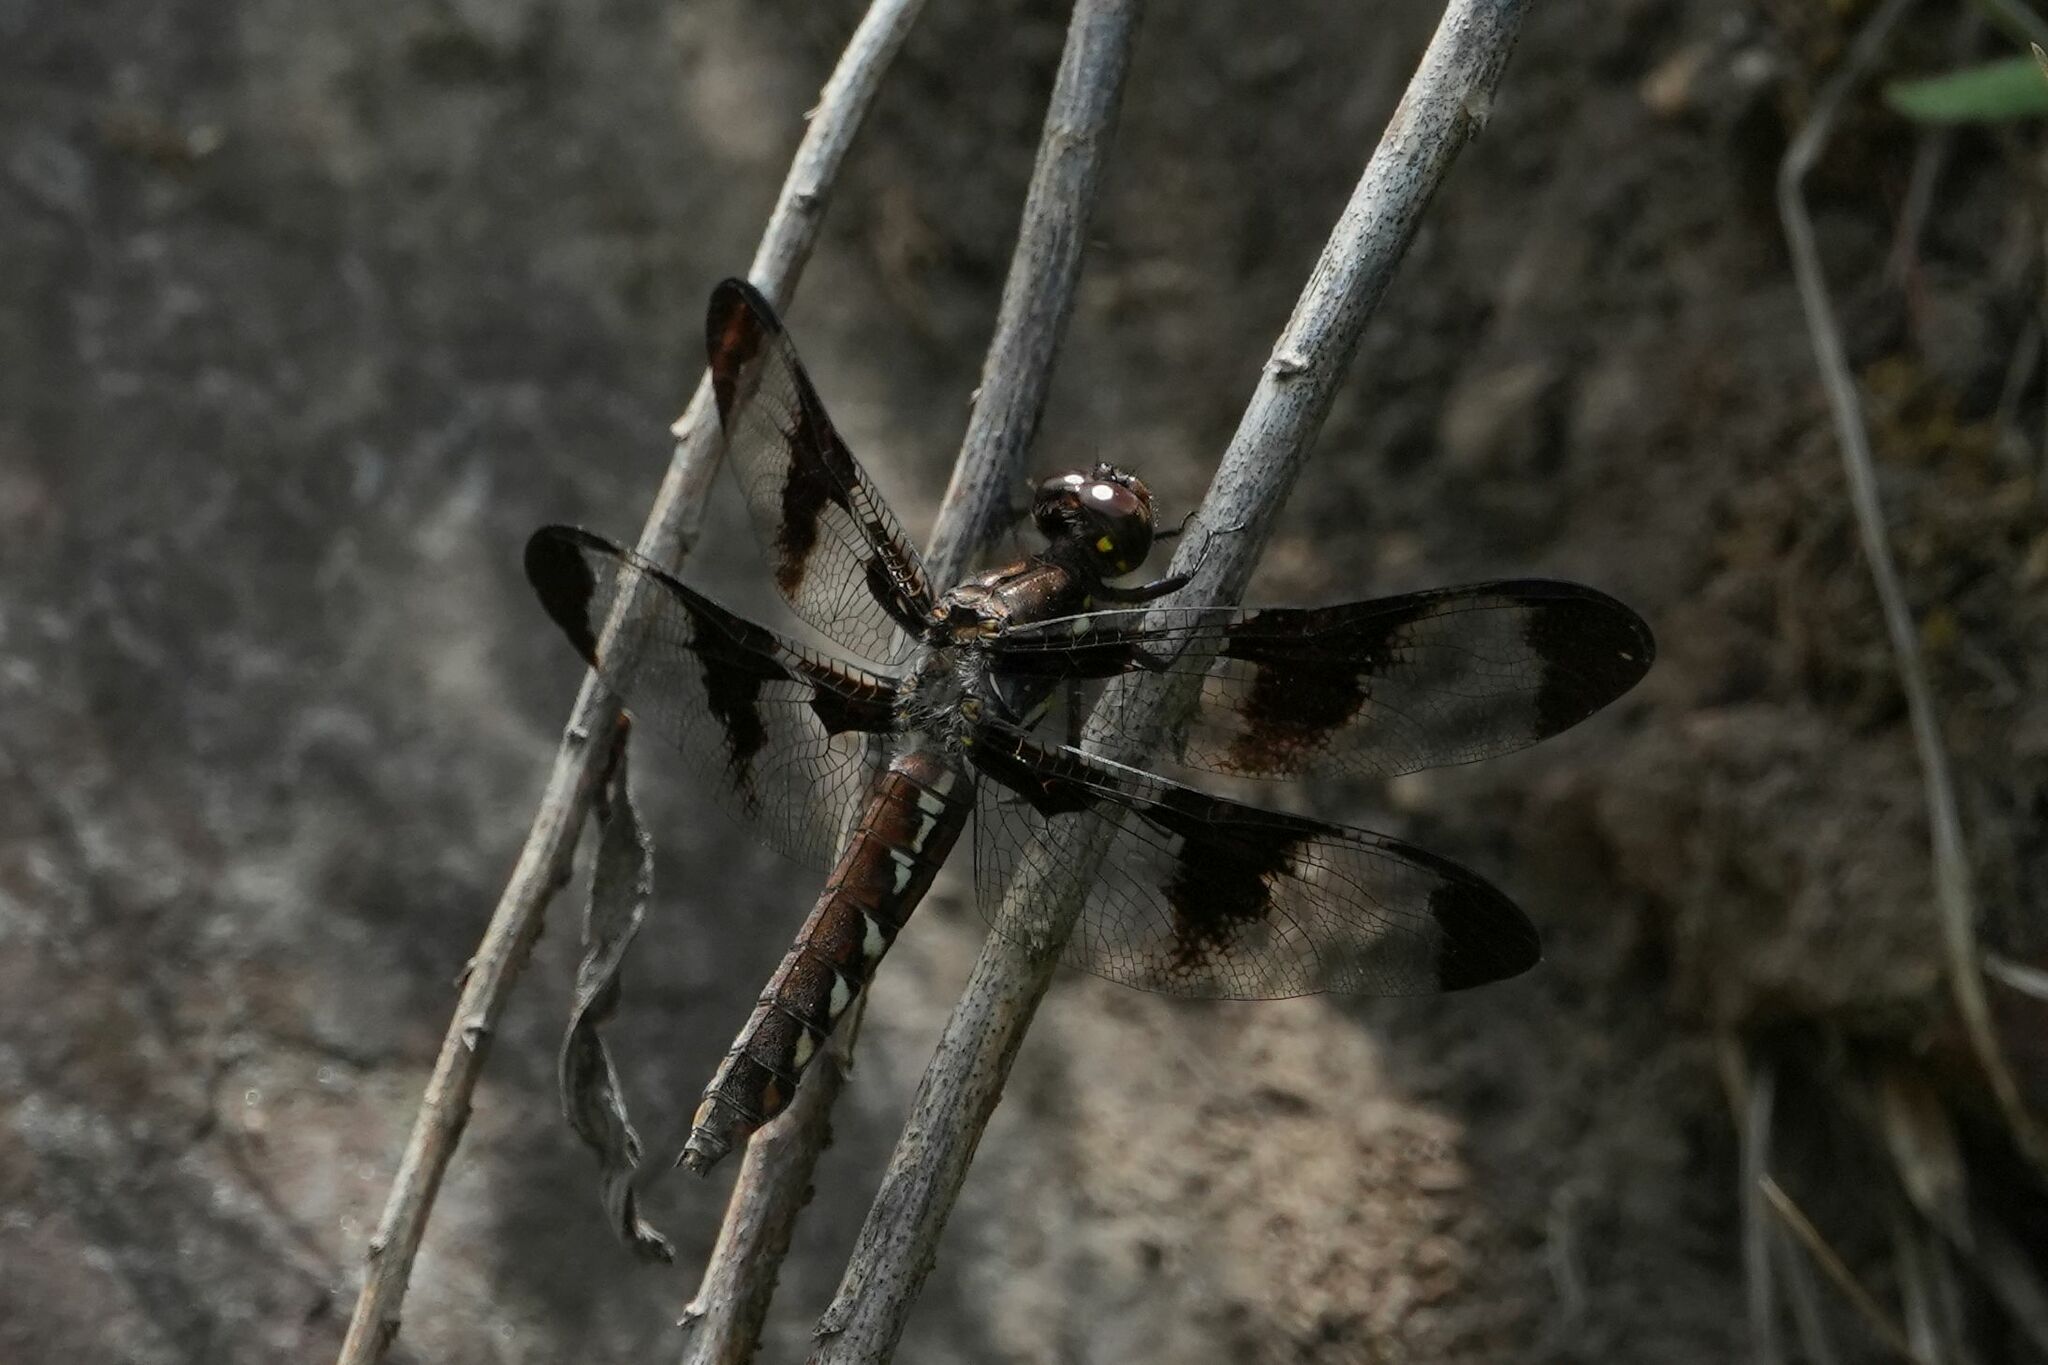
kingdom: Animalia
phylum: Arthropoda
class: Insecta
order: Odonata
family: Libellulidae
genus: Plathemis
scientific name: Plathemis lydia
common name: Common whitetail
